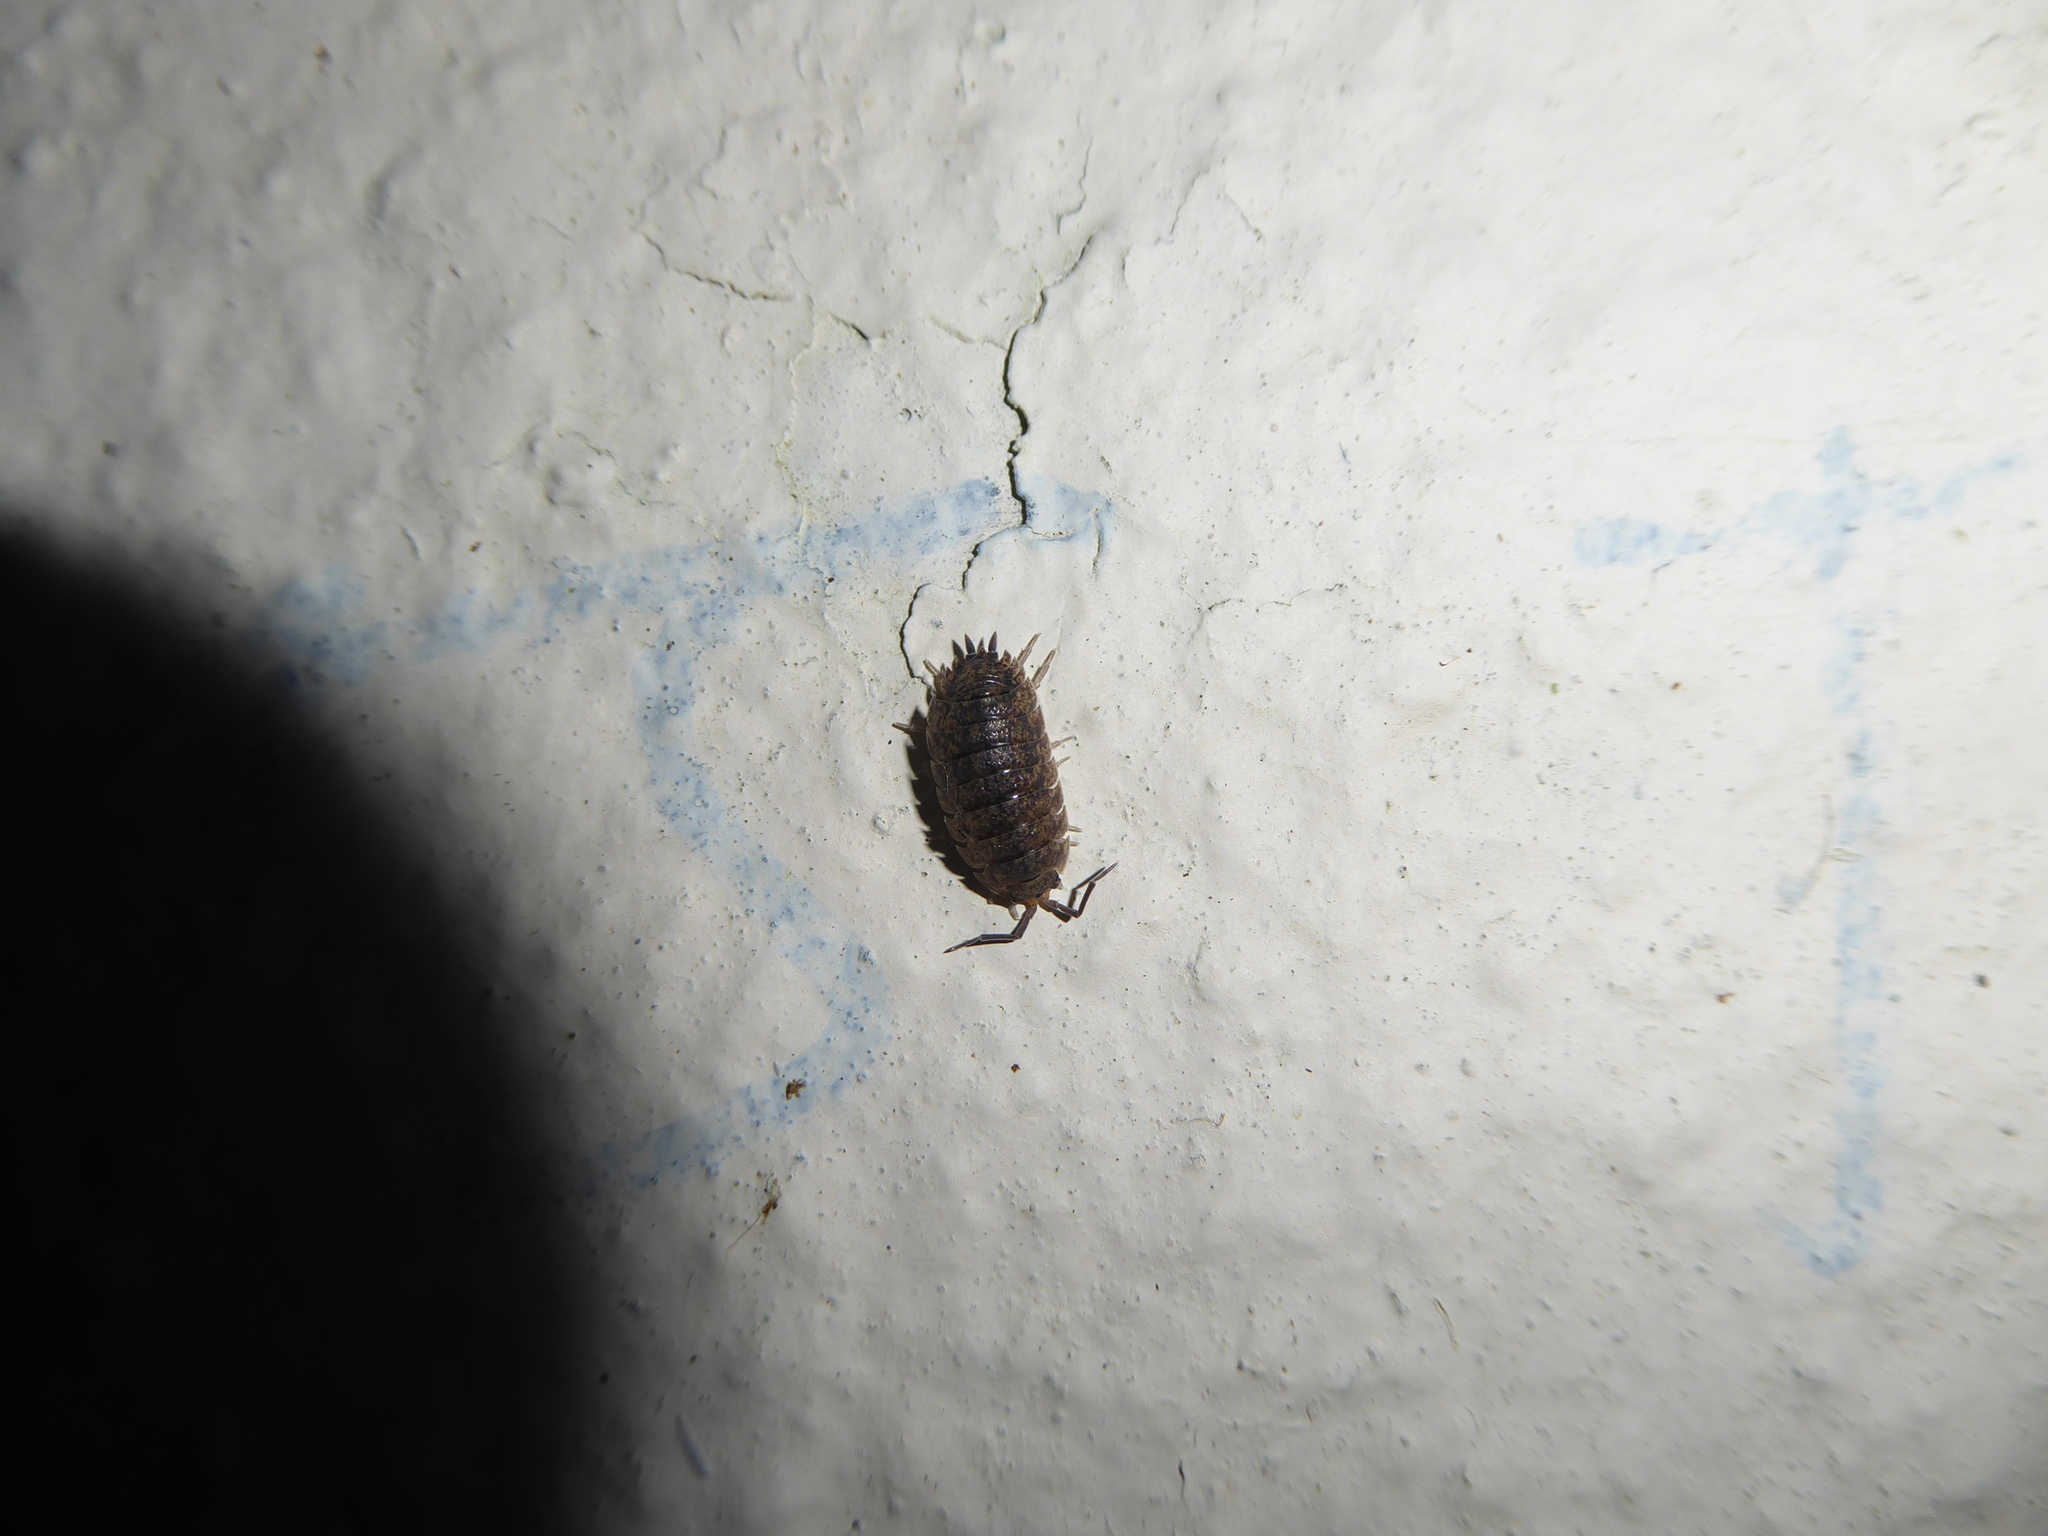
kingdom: Animalia
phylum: Arthropoda
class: Malacostraca
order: Isopoda
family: Porcellionidae
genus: Porcellio
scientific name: Porcellio scaber
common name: Common rough woodlouse
